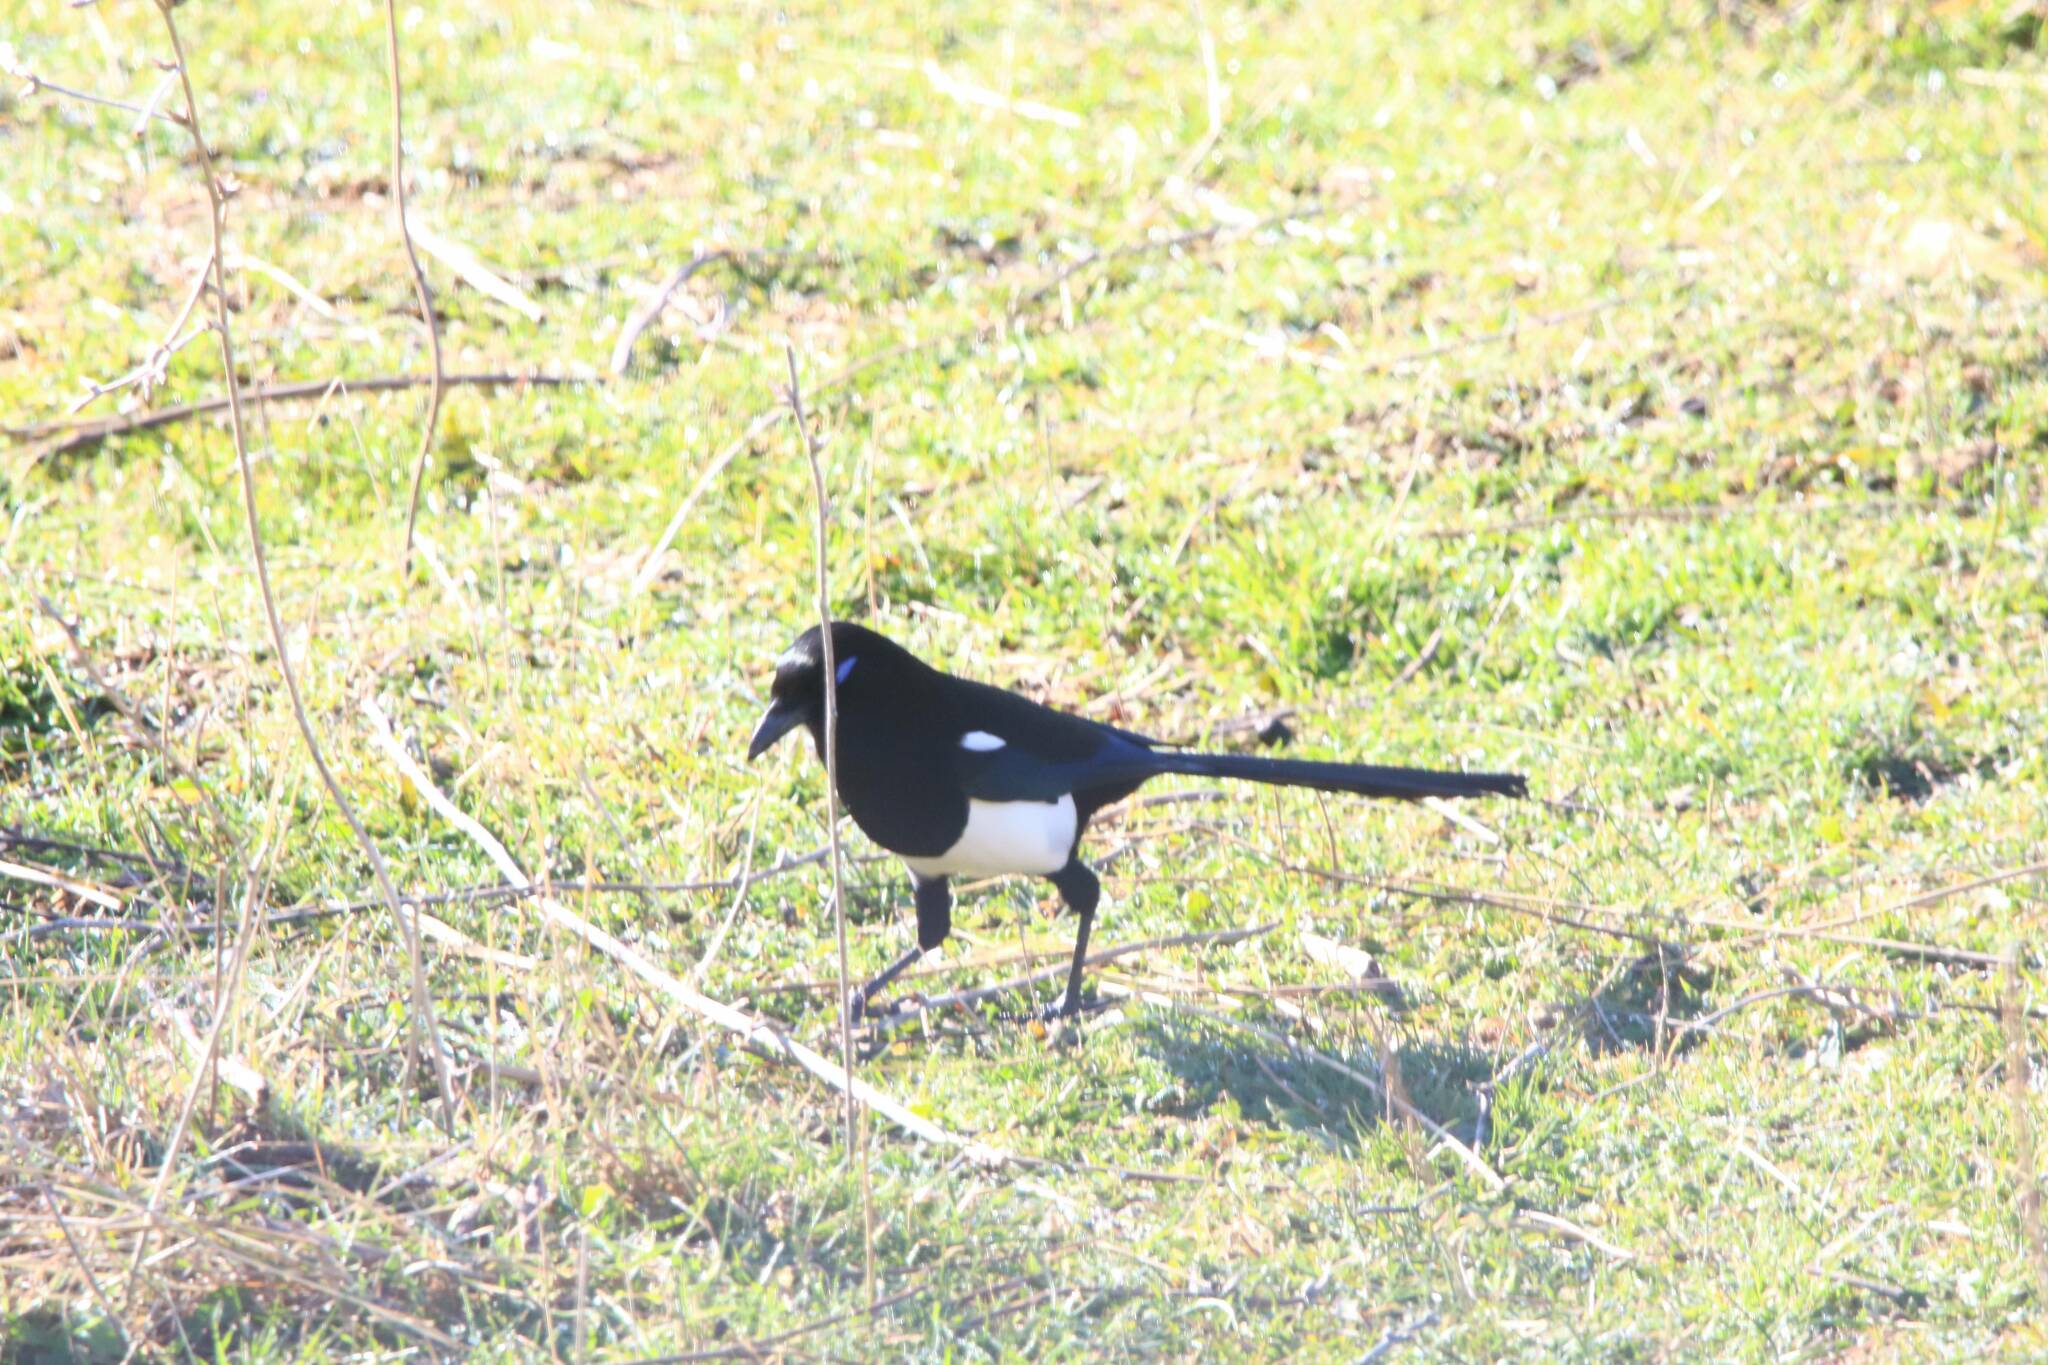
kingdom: Animalia
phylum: Chordata
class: Aves
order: Passeriformes
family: Corvidae
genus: Pica
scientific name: Pica mauritanica
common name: Maghreb magpie
